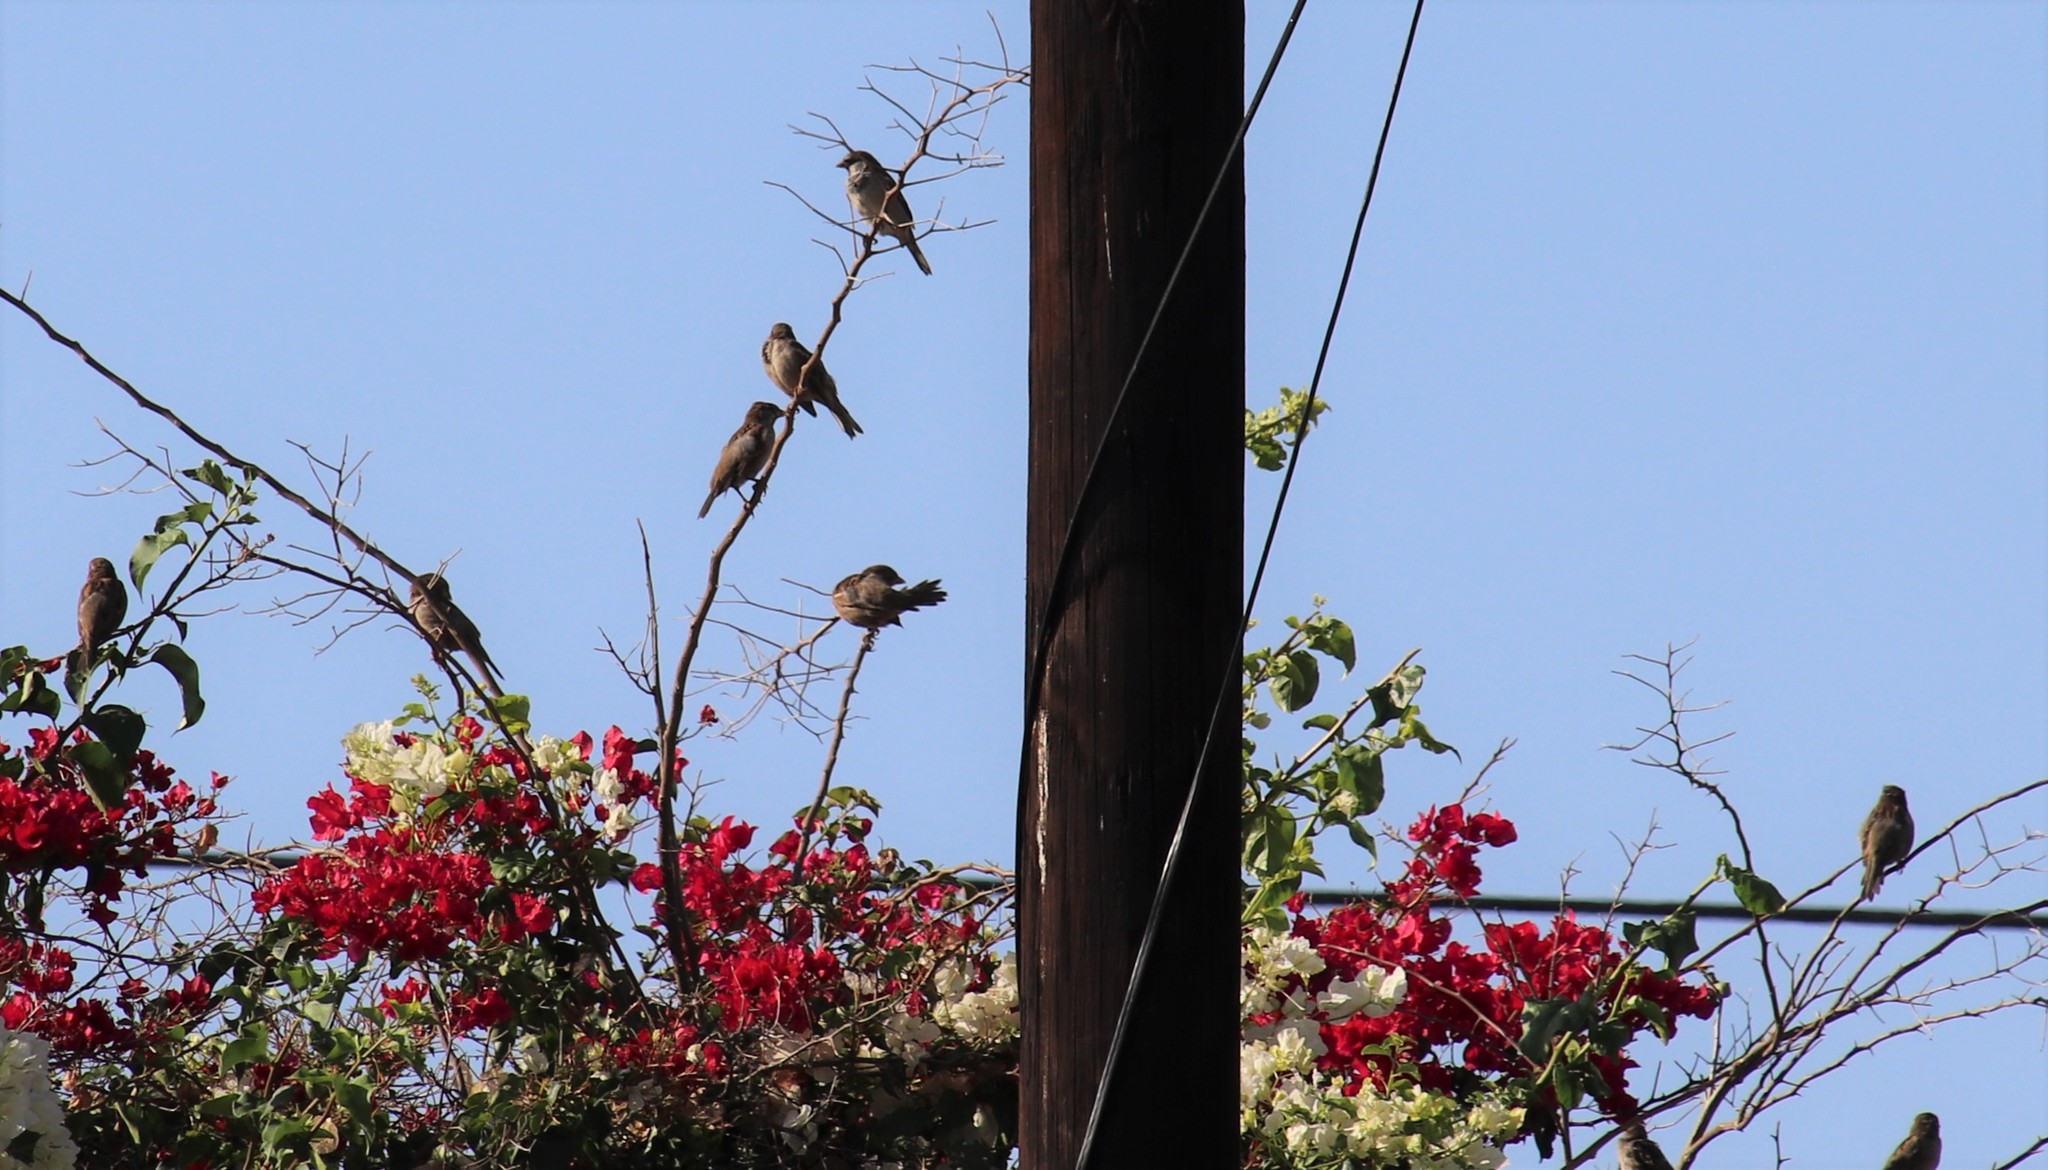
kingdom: Animalia
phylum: Chordata
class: Aves
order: Passeriformes
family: Passeridae
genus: Passer
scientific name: Passer domesticus
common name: House sparrow
